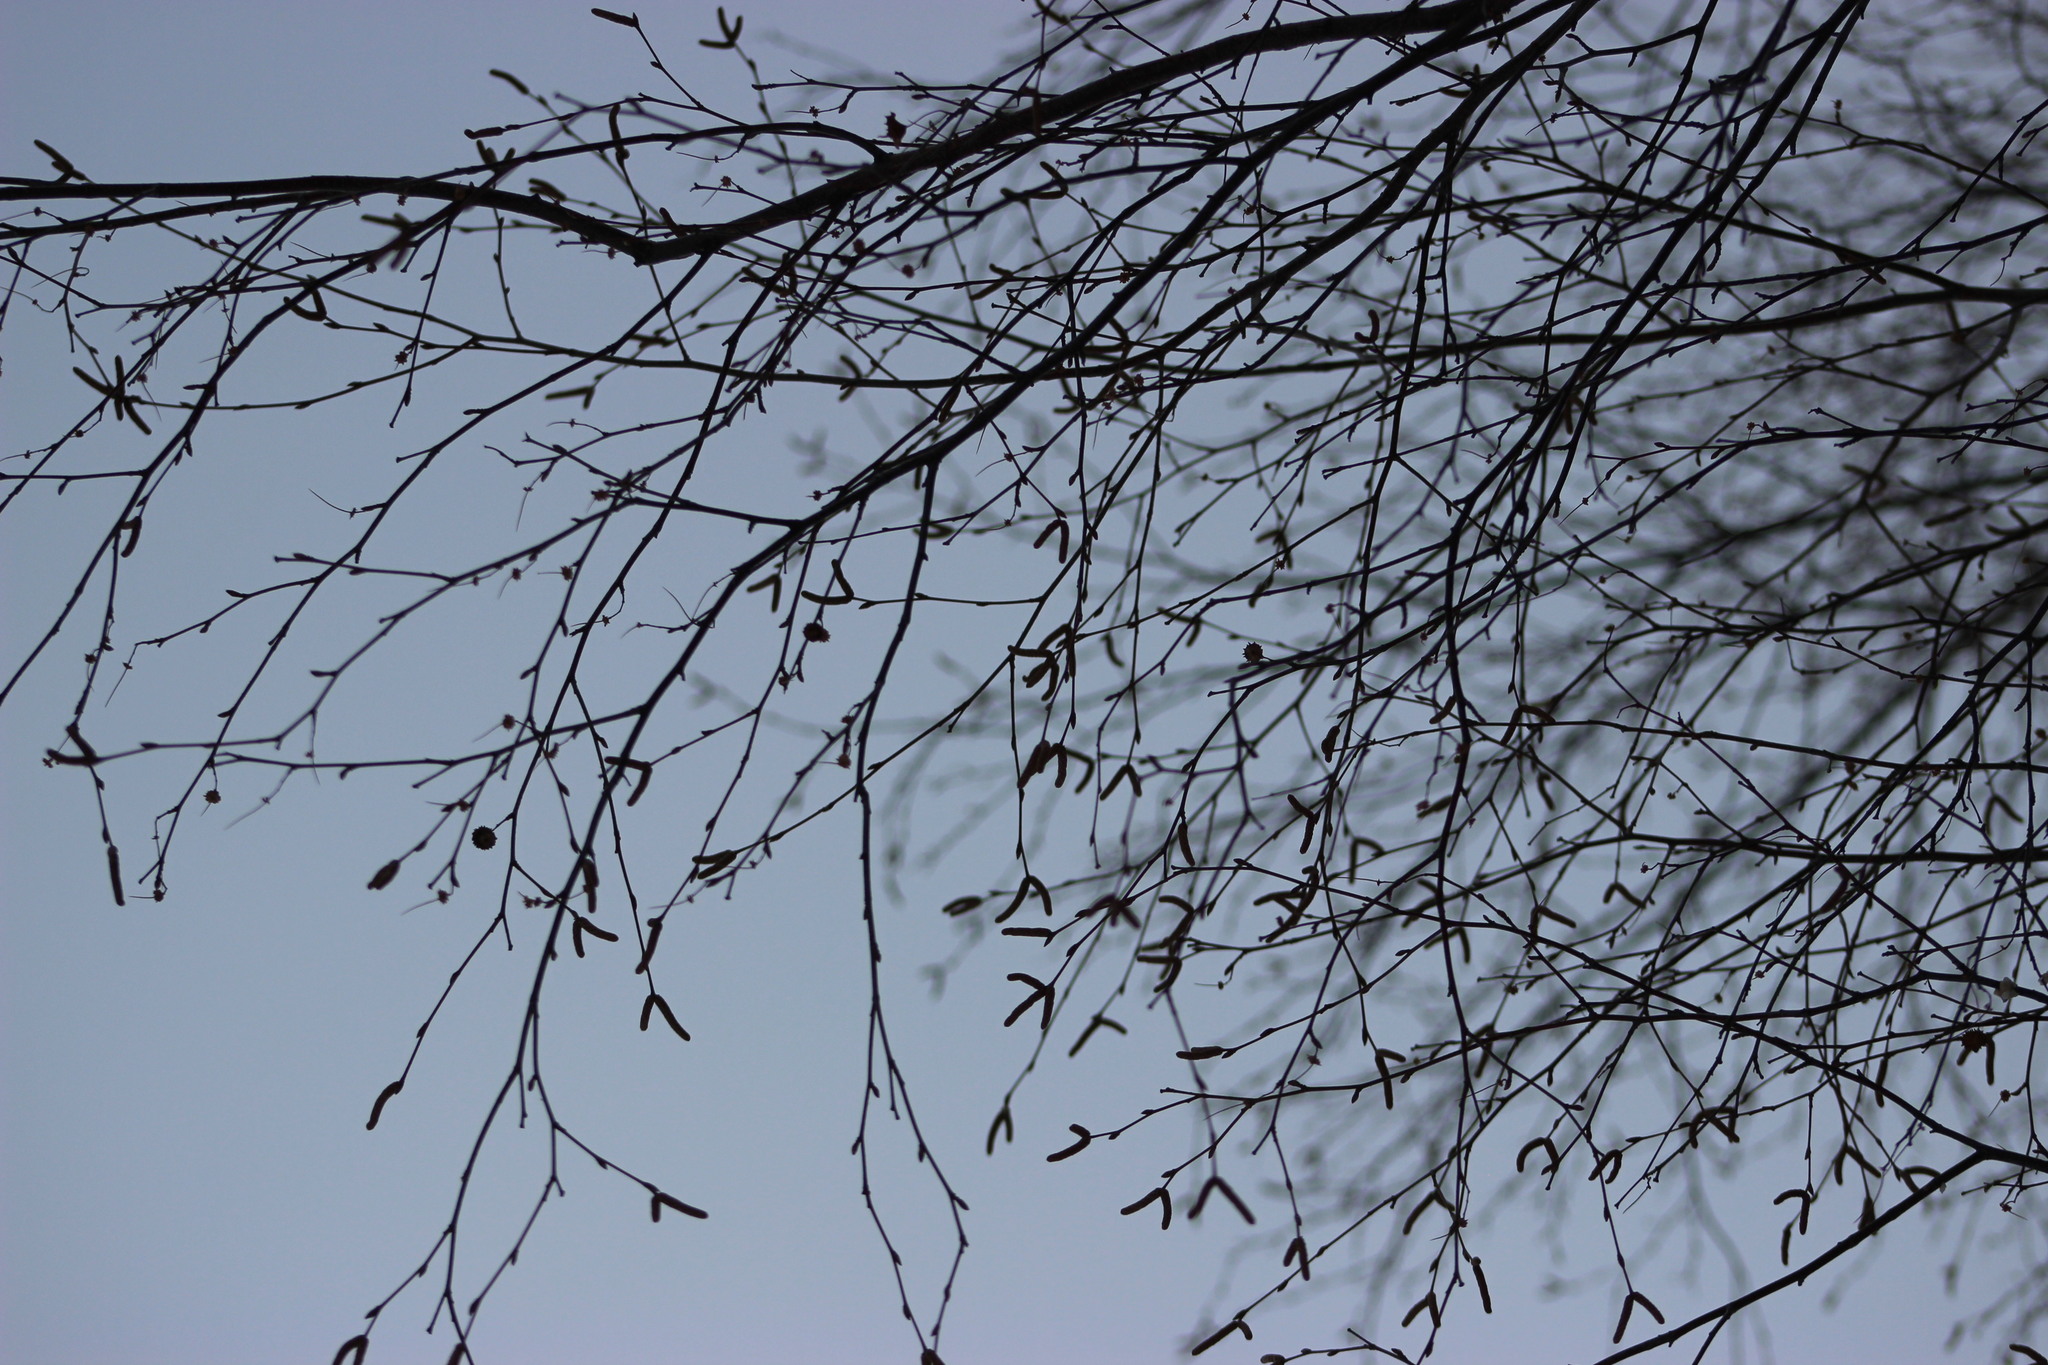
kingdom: Plantae
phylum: Tracheophyta
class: Magnoliopsida
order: Fagales
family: Betulaceae
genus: Betula
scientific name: Betula pubescens
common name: Downy birch
